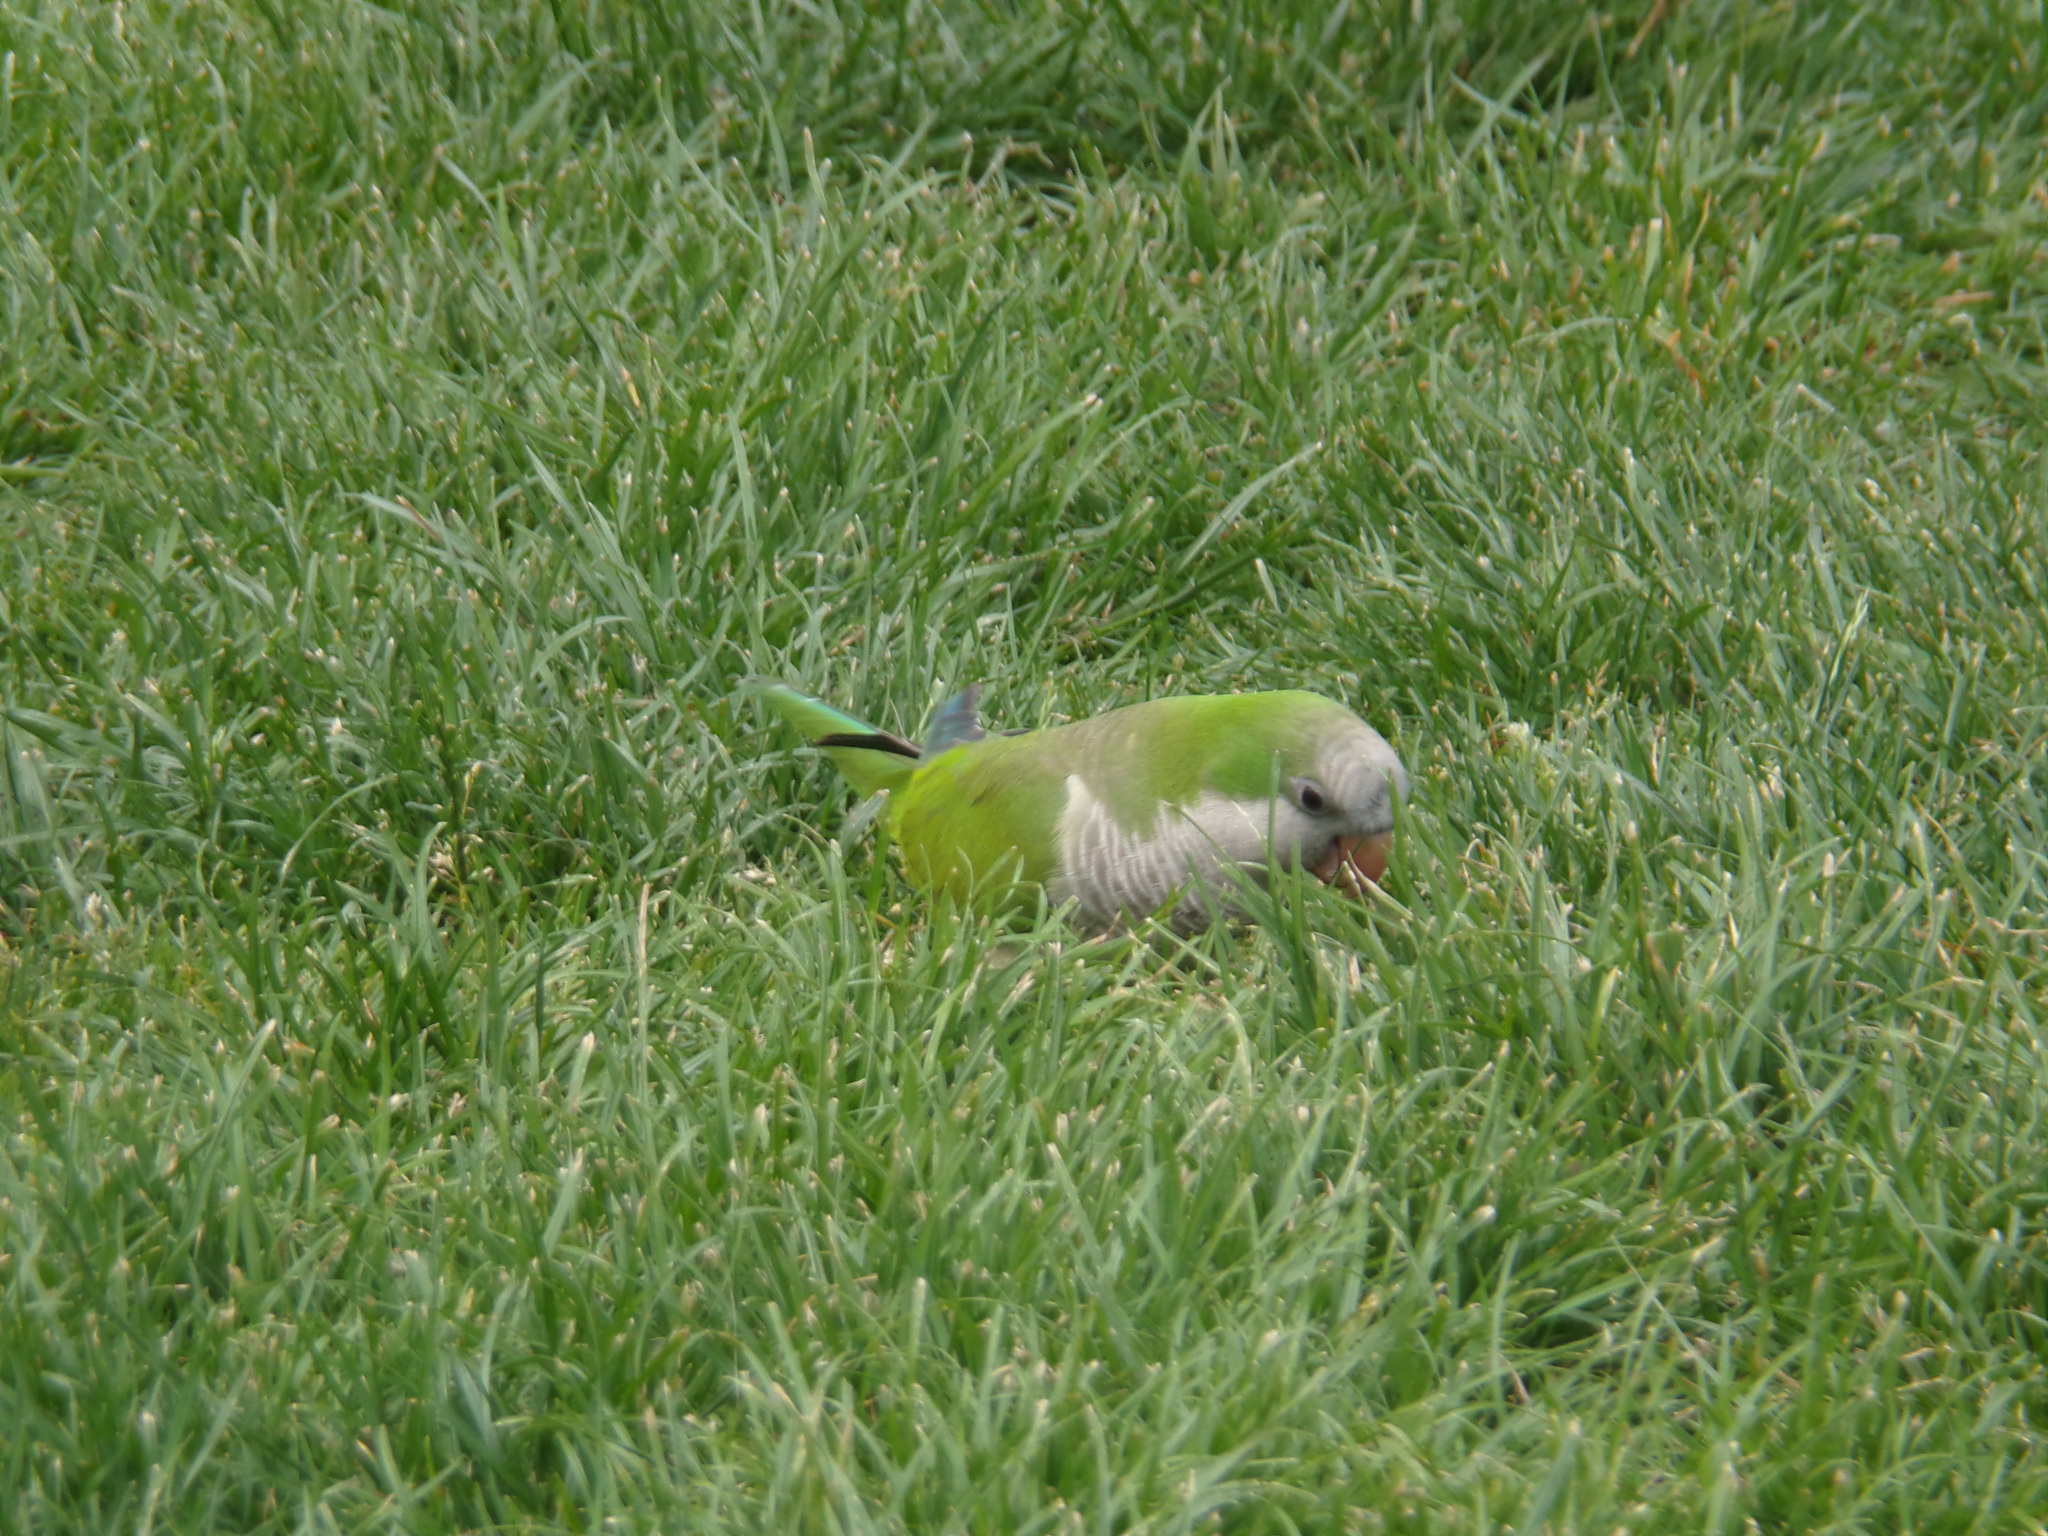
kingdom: Animalia
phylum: Chordata
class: Aves
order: Psittaciformes
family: Psittacidae
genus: Myiopsitta
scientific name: Myiopsitta monachus
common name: Monk parakeet
